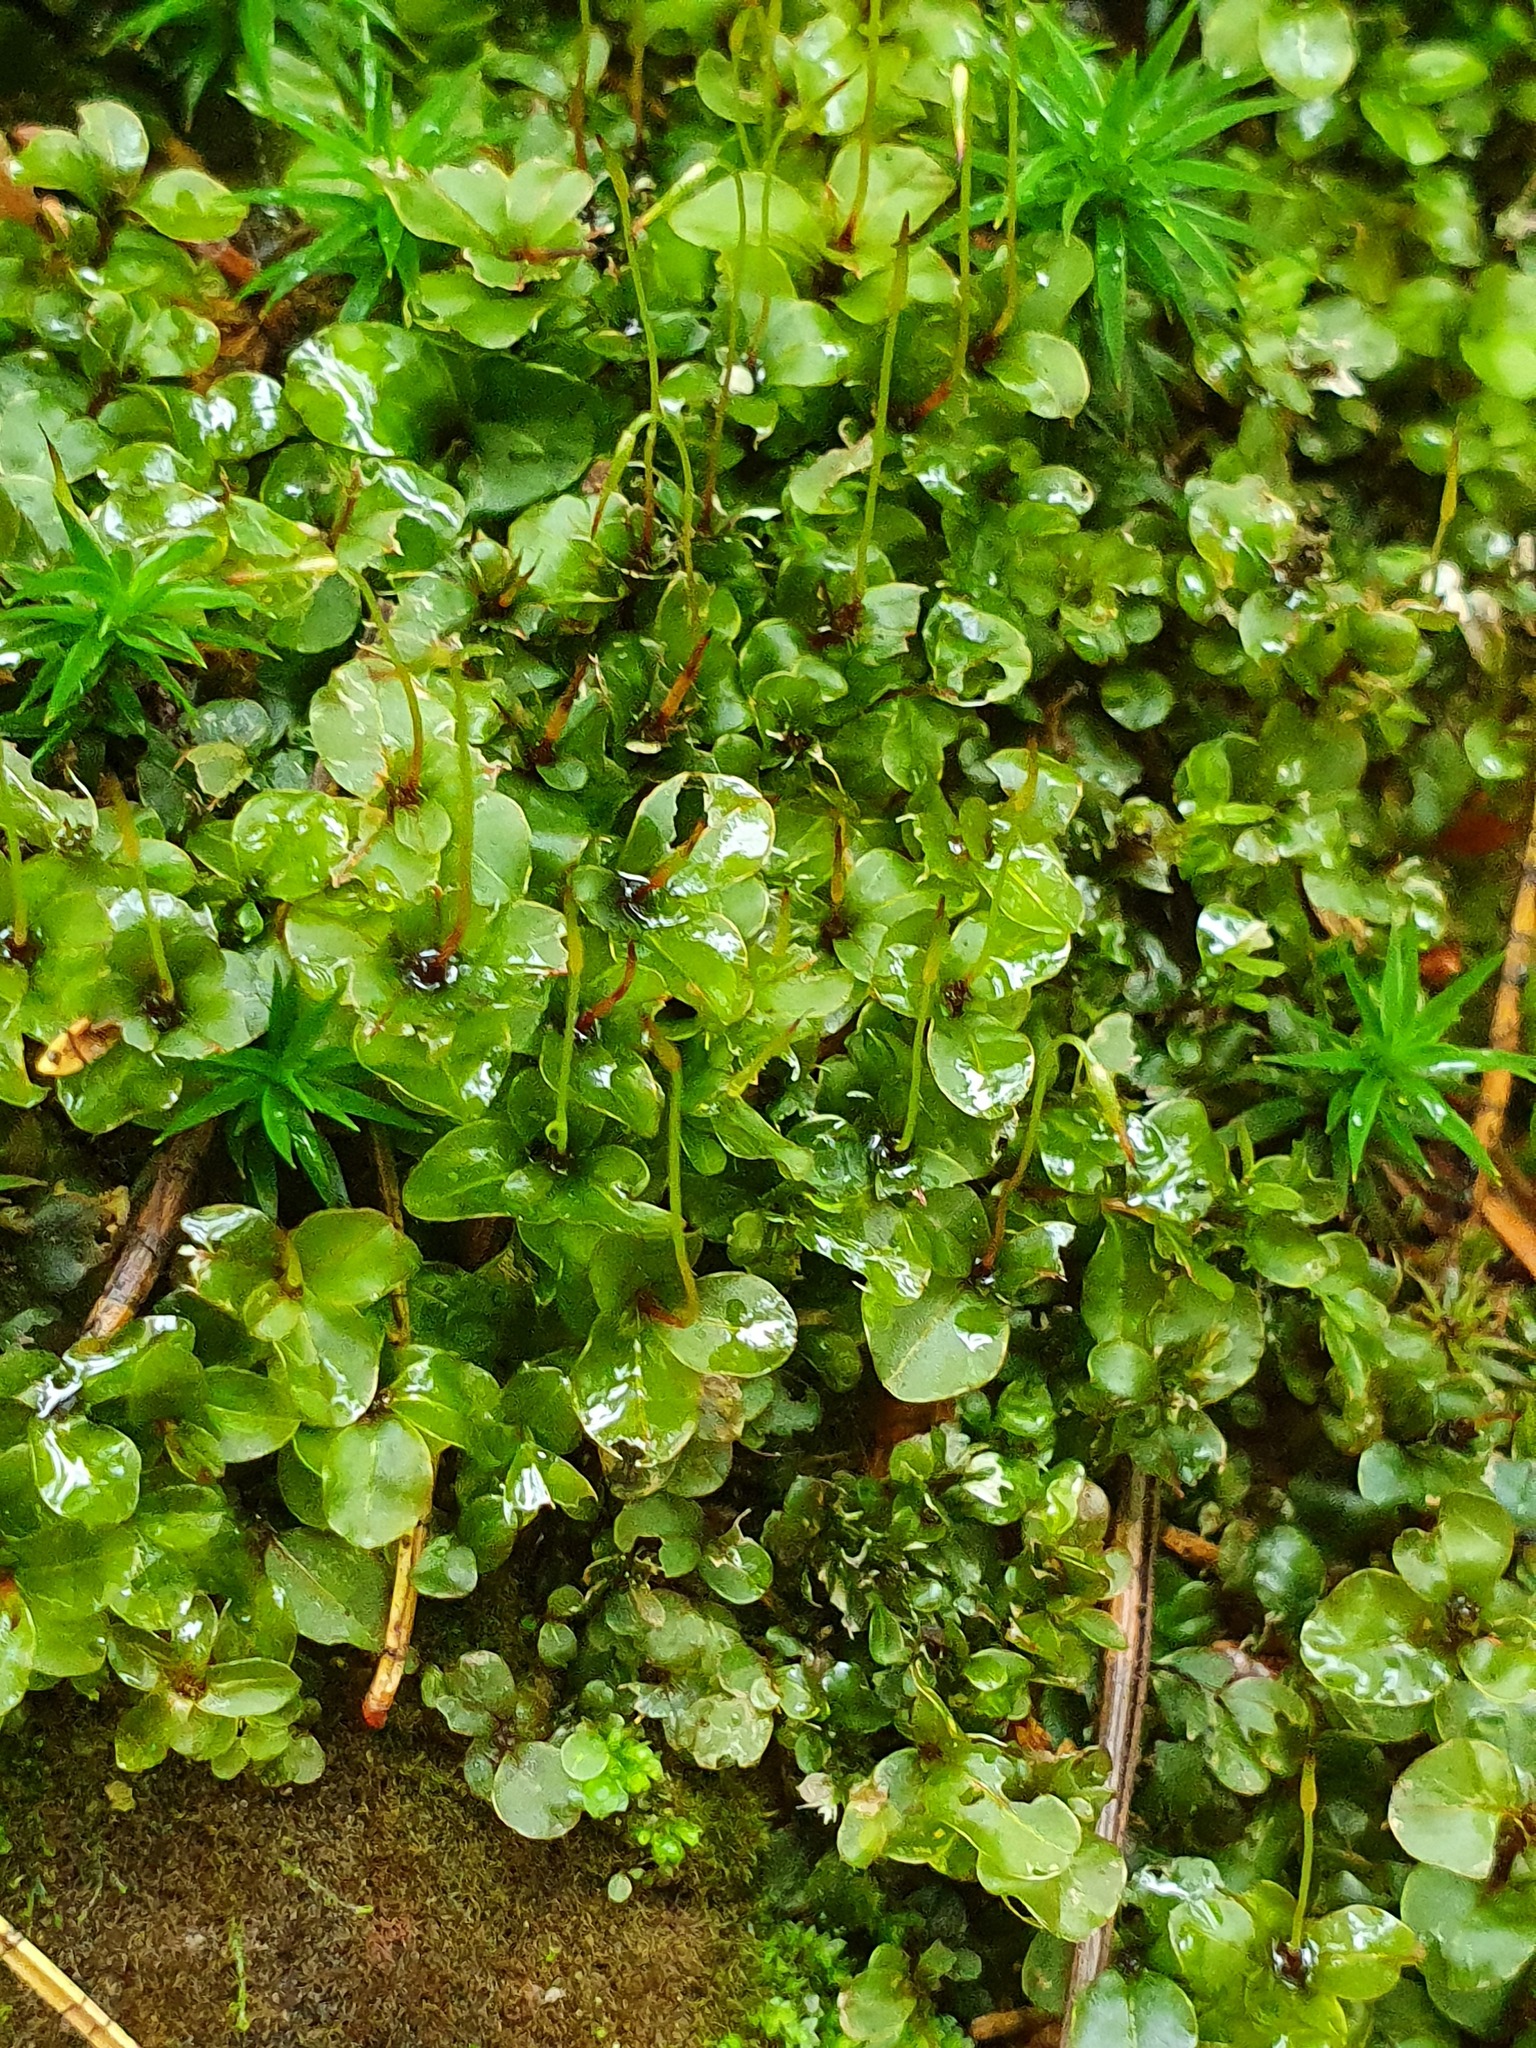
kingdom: Plantae
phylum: Bryophyta
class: Bryopsida
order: Bryales
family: Mniaceae
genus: Rhizomnium
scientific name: Rhizomnium punctatum
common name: Dotted leafy moss
